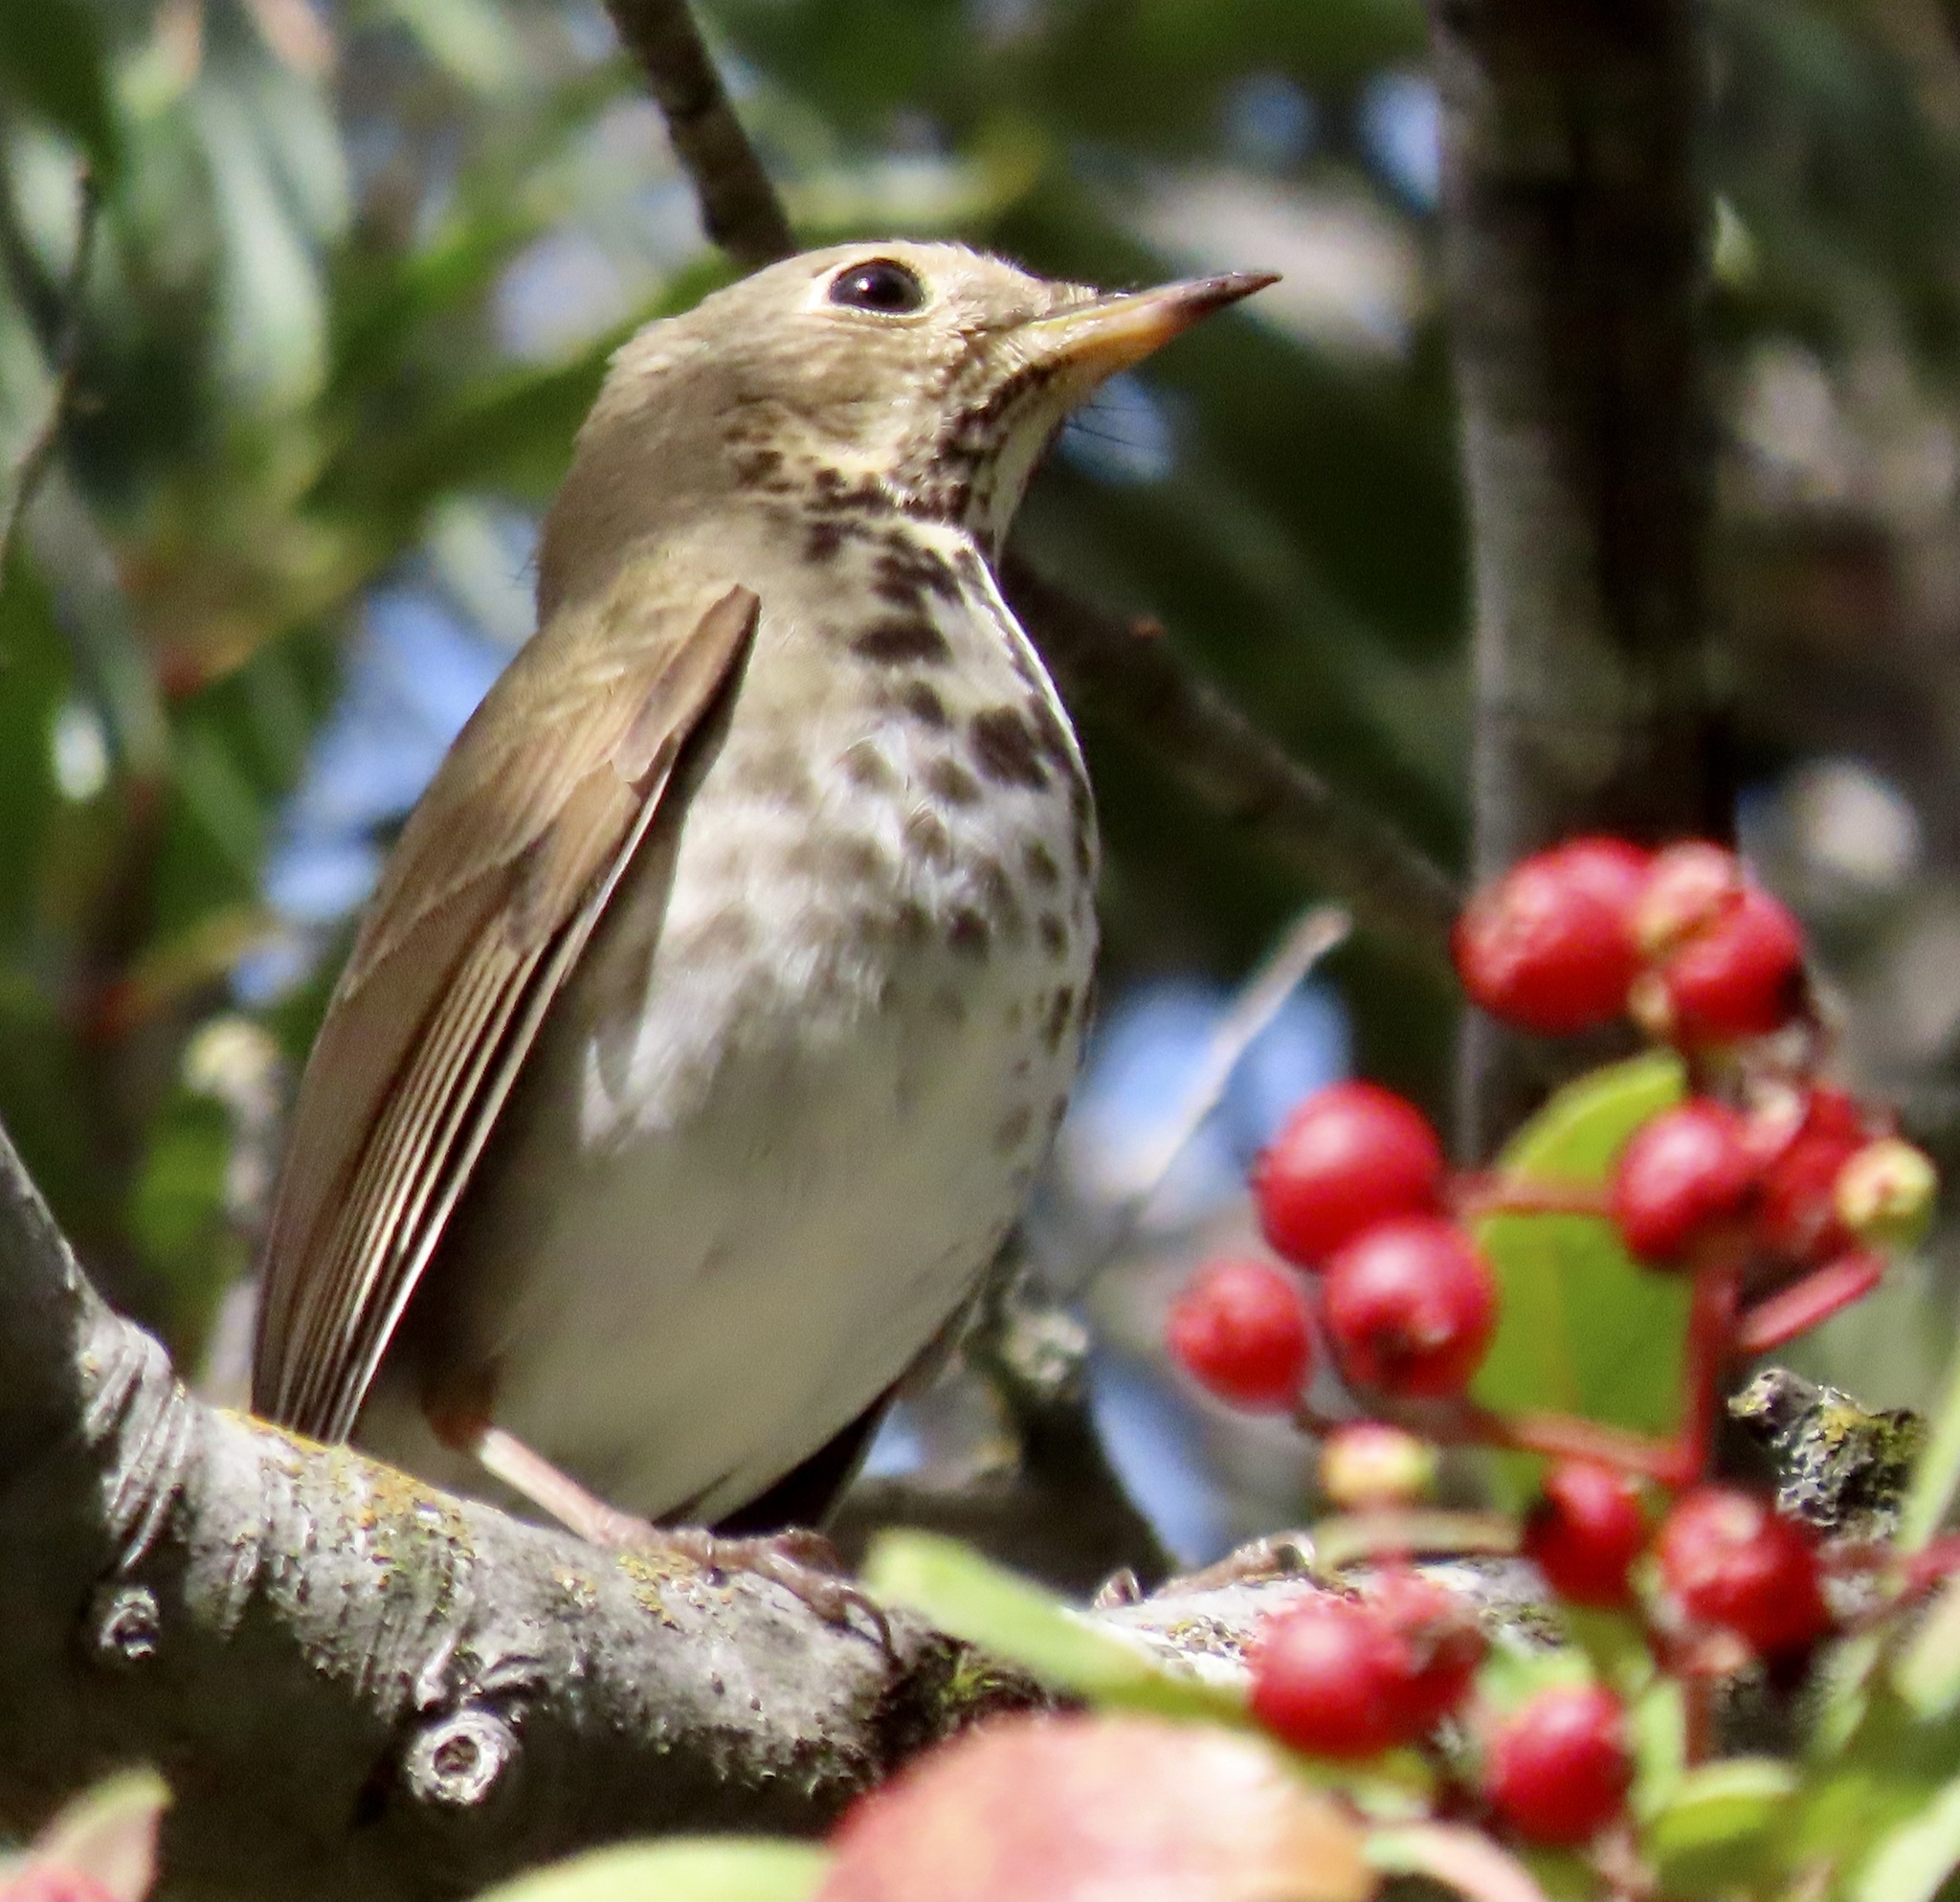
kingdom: Animalia
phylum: Chordata
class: Aves
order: Passeriformes
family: Turdidae
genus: Catharus
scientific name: Catharus guttatus
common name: Hermit thrush
